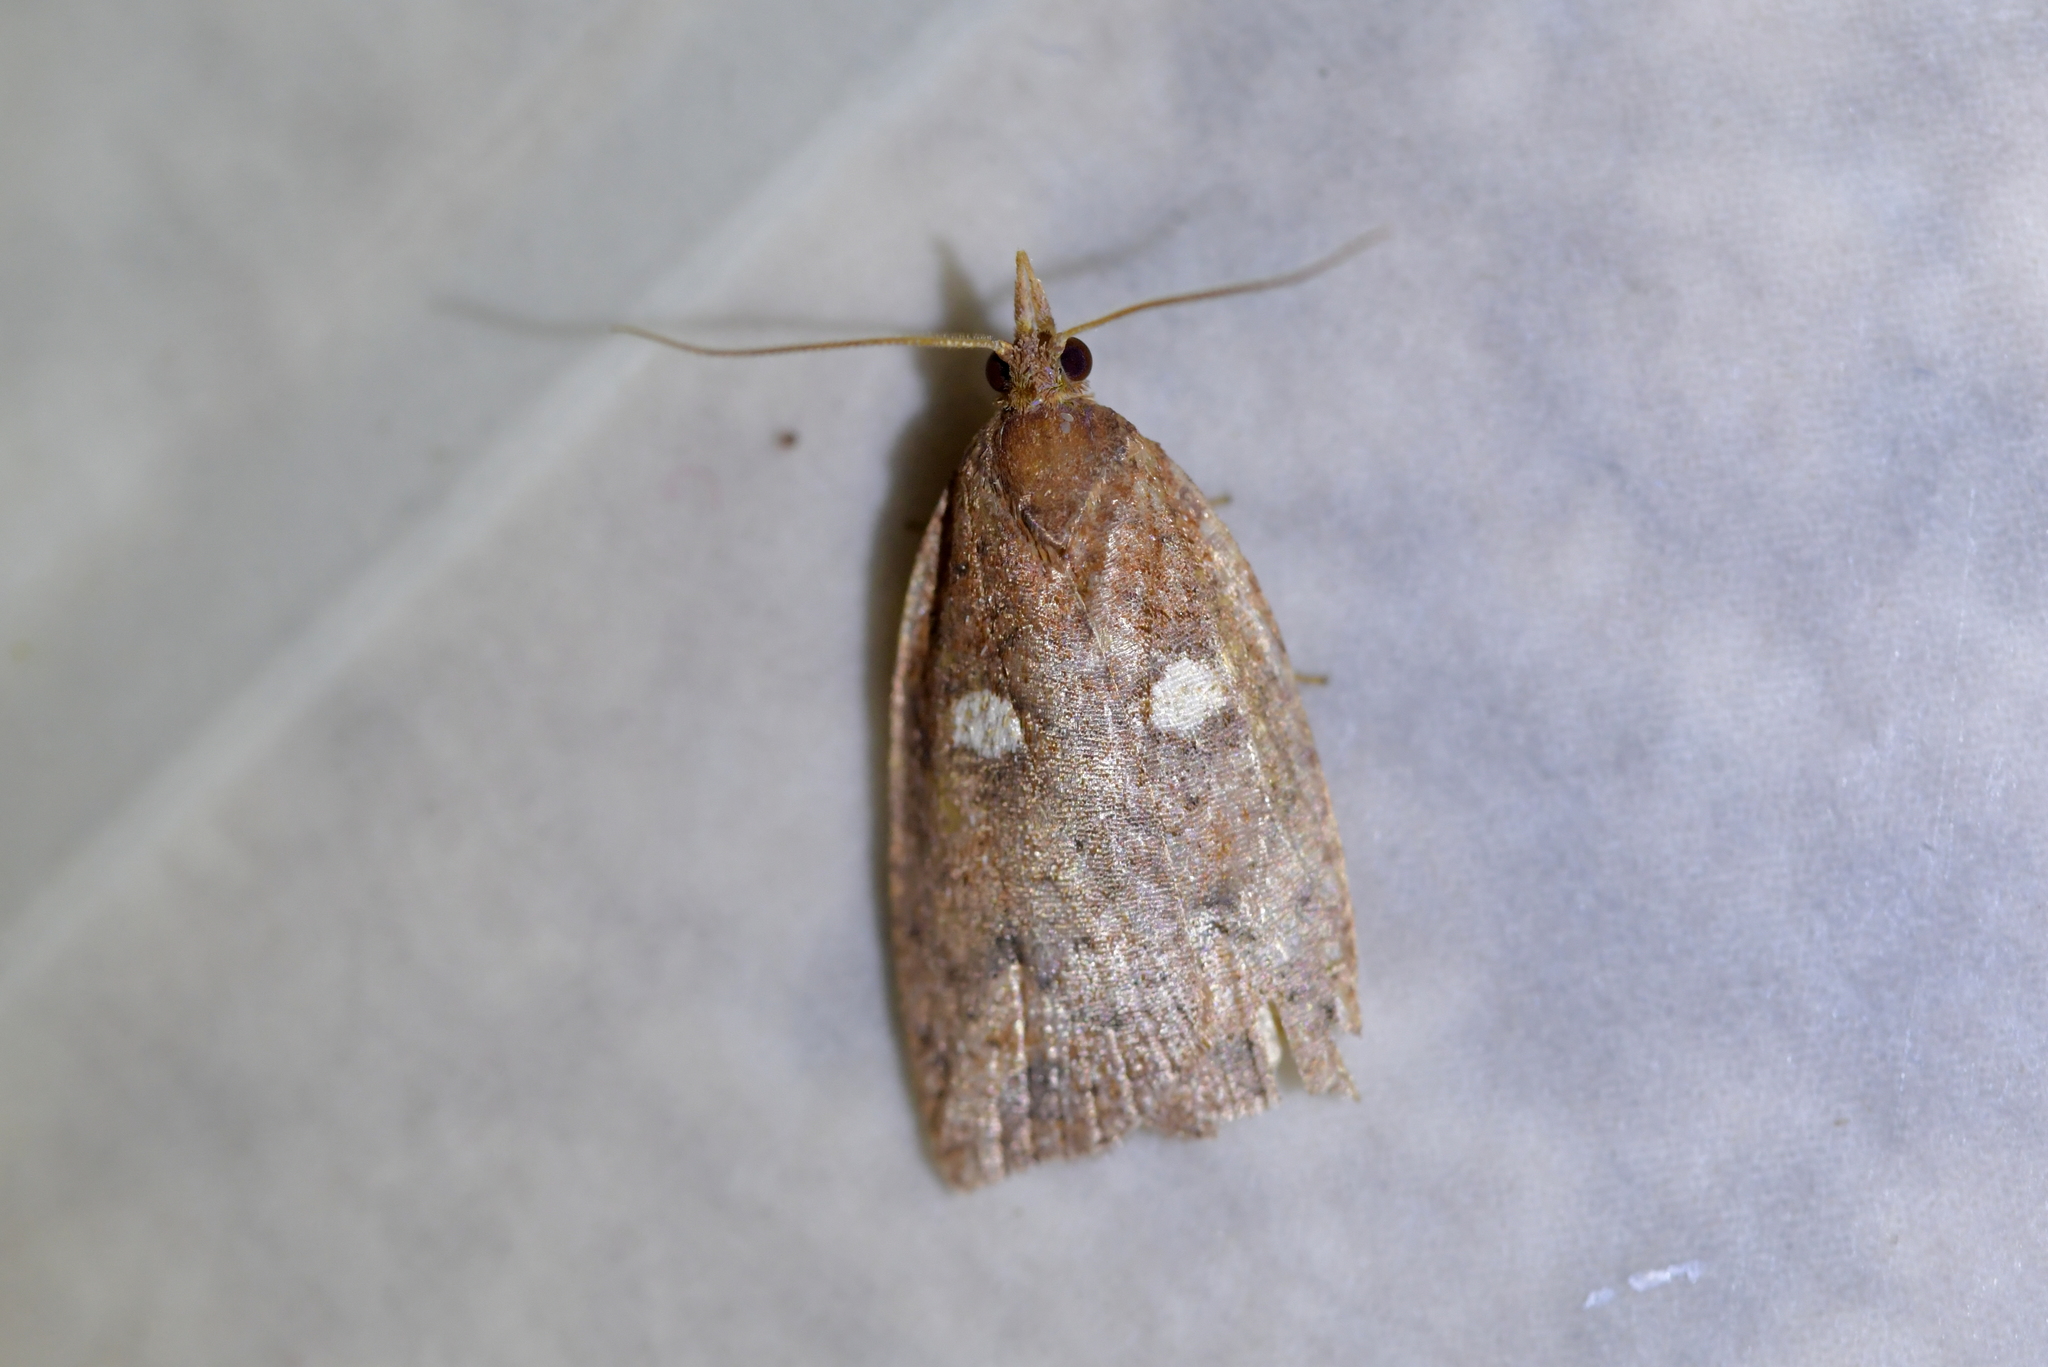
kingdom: Animalia
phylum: Arthropoda
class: Insecta
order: Lepidoptera
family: Tortricidae
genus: Planotortrix
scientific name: Planotortrix excessana
